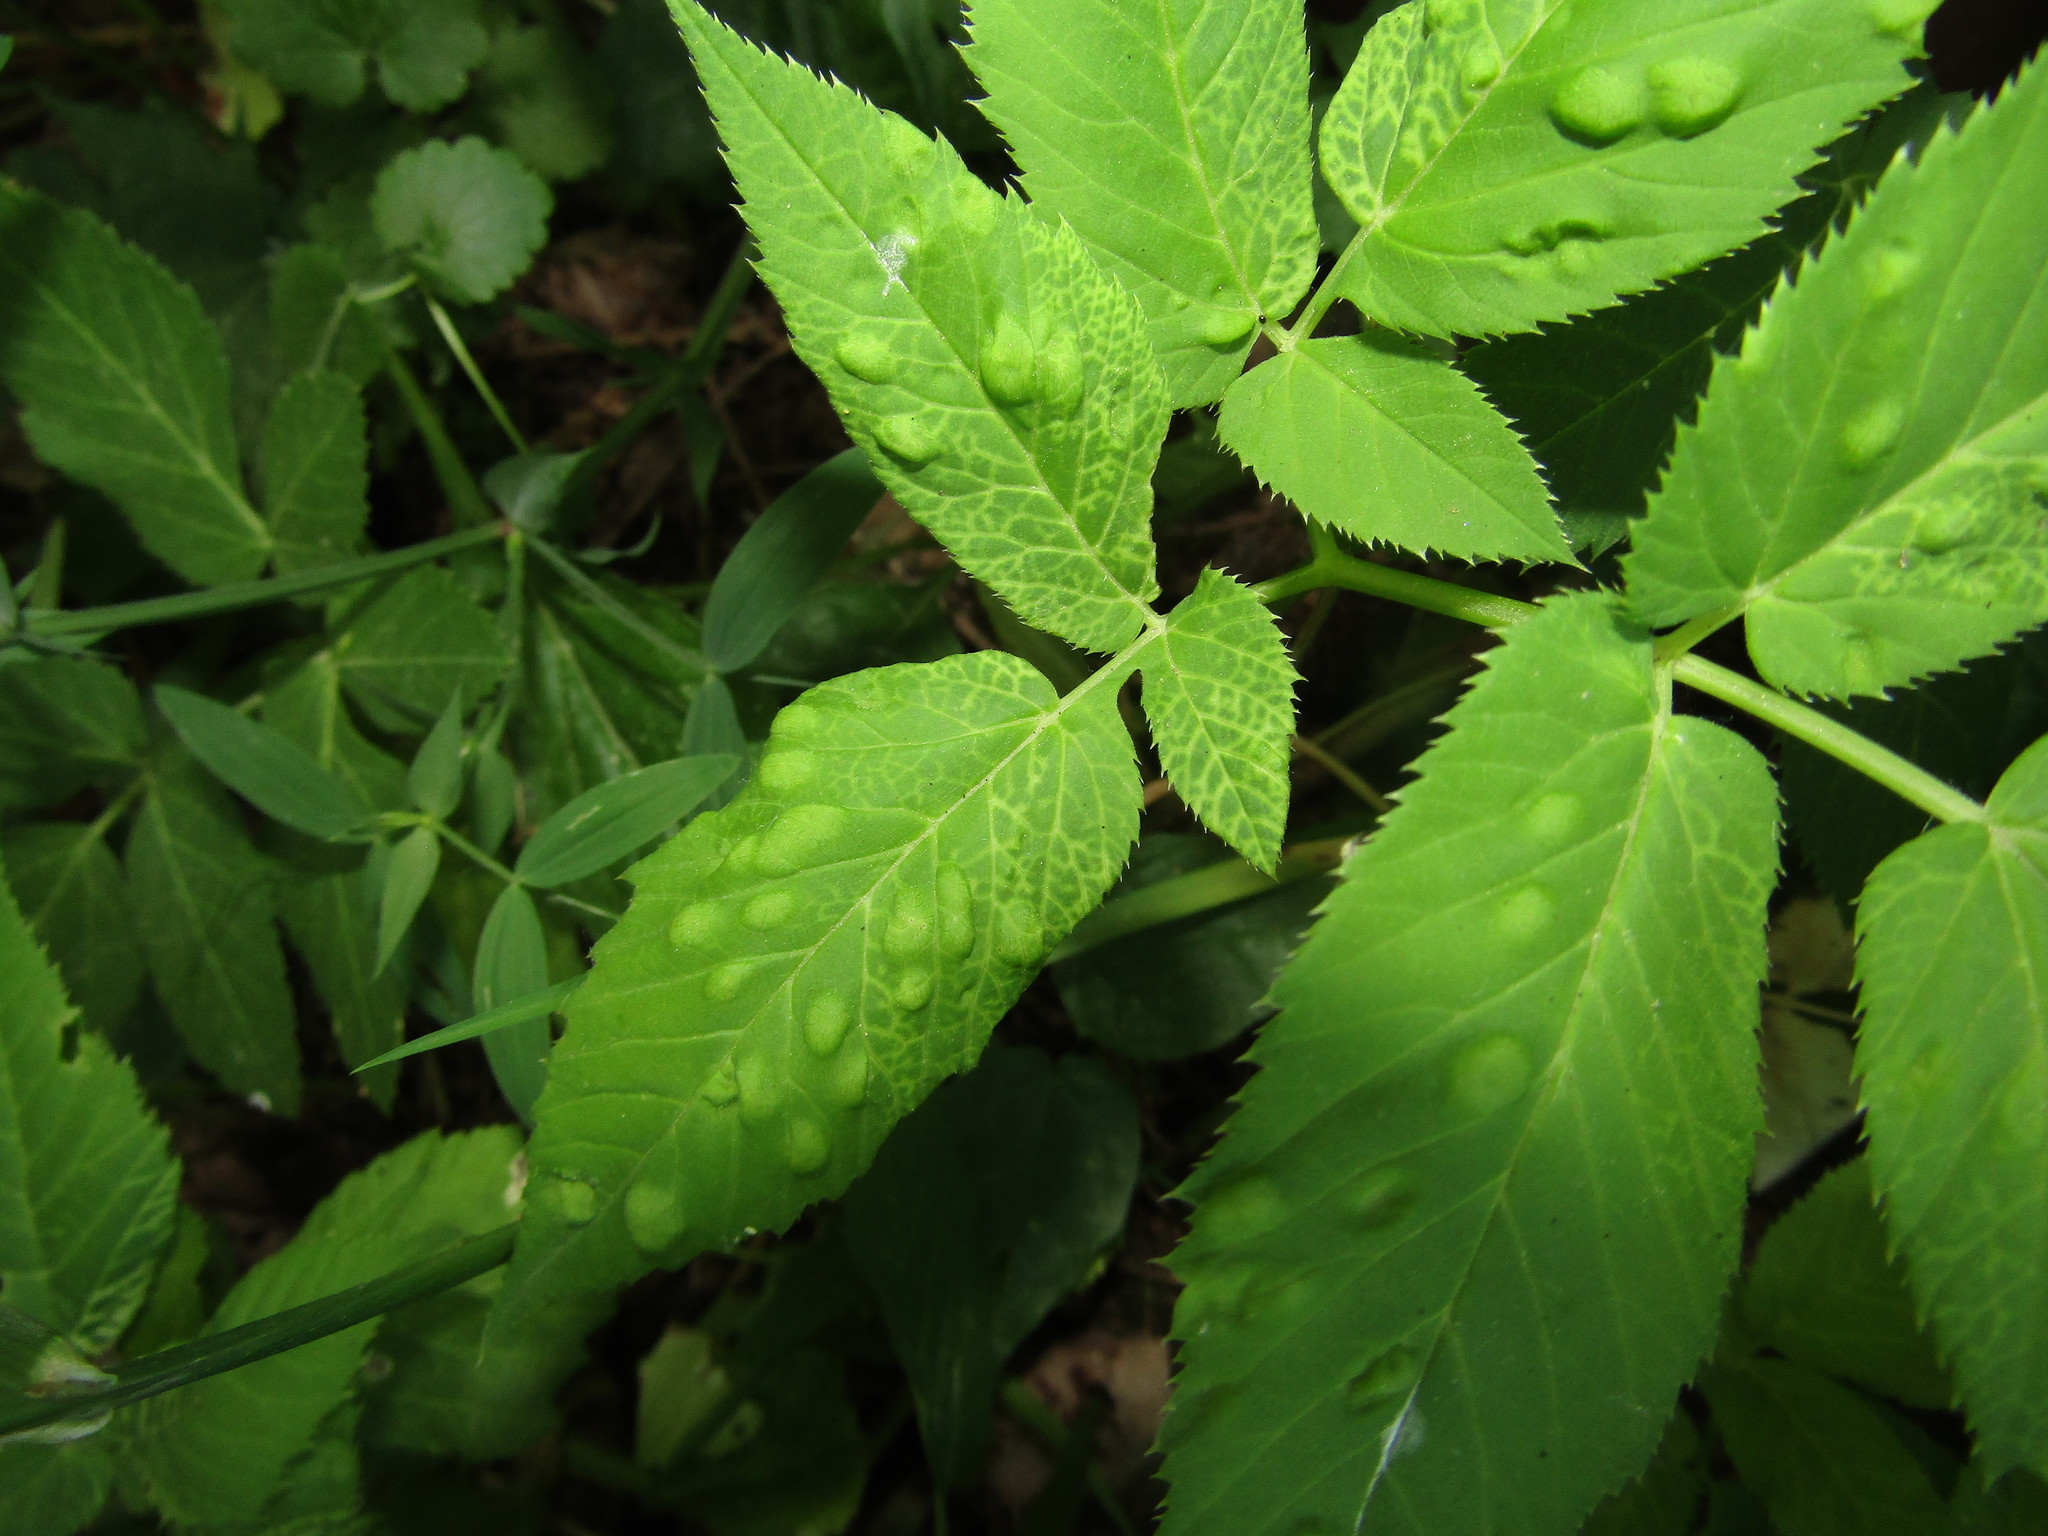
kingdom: Plantae
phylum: Tracheophyta
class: Magnoliopsida
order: Apiales
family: Apiaceae
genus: Aegopodium
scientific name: Aegopodium podagraria
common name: Ground-elder
